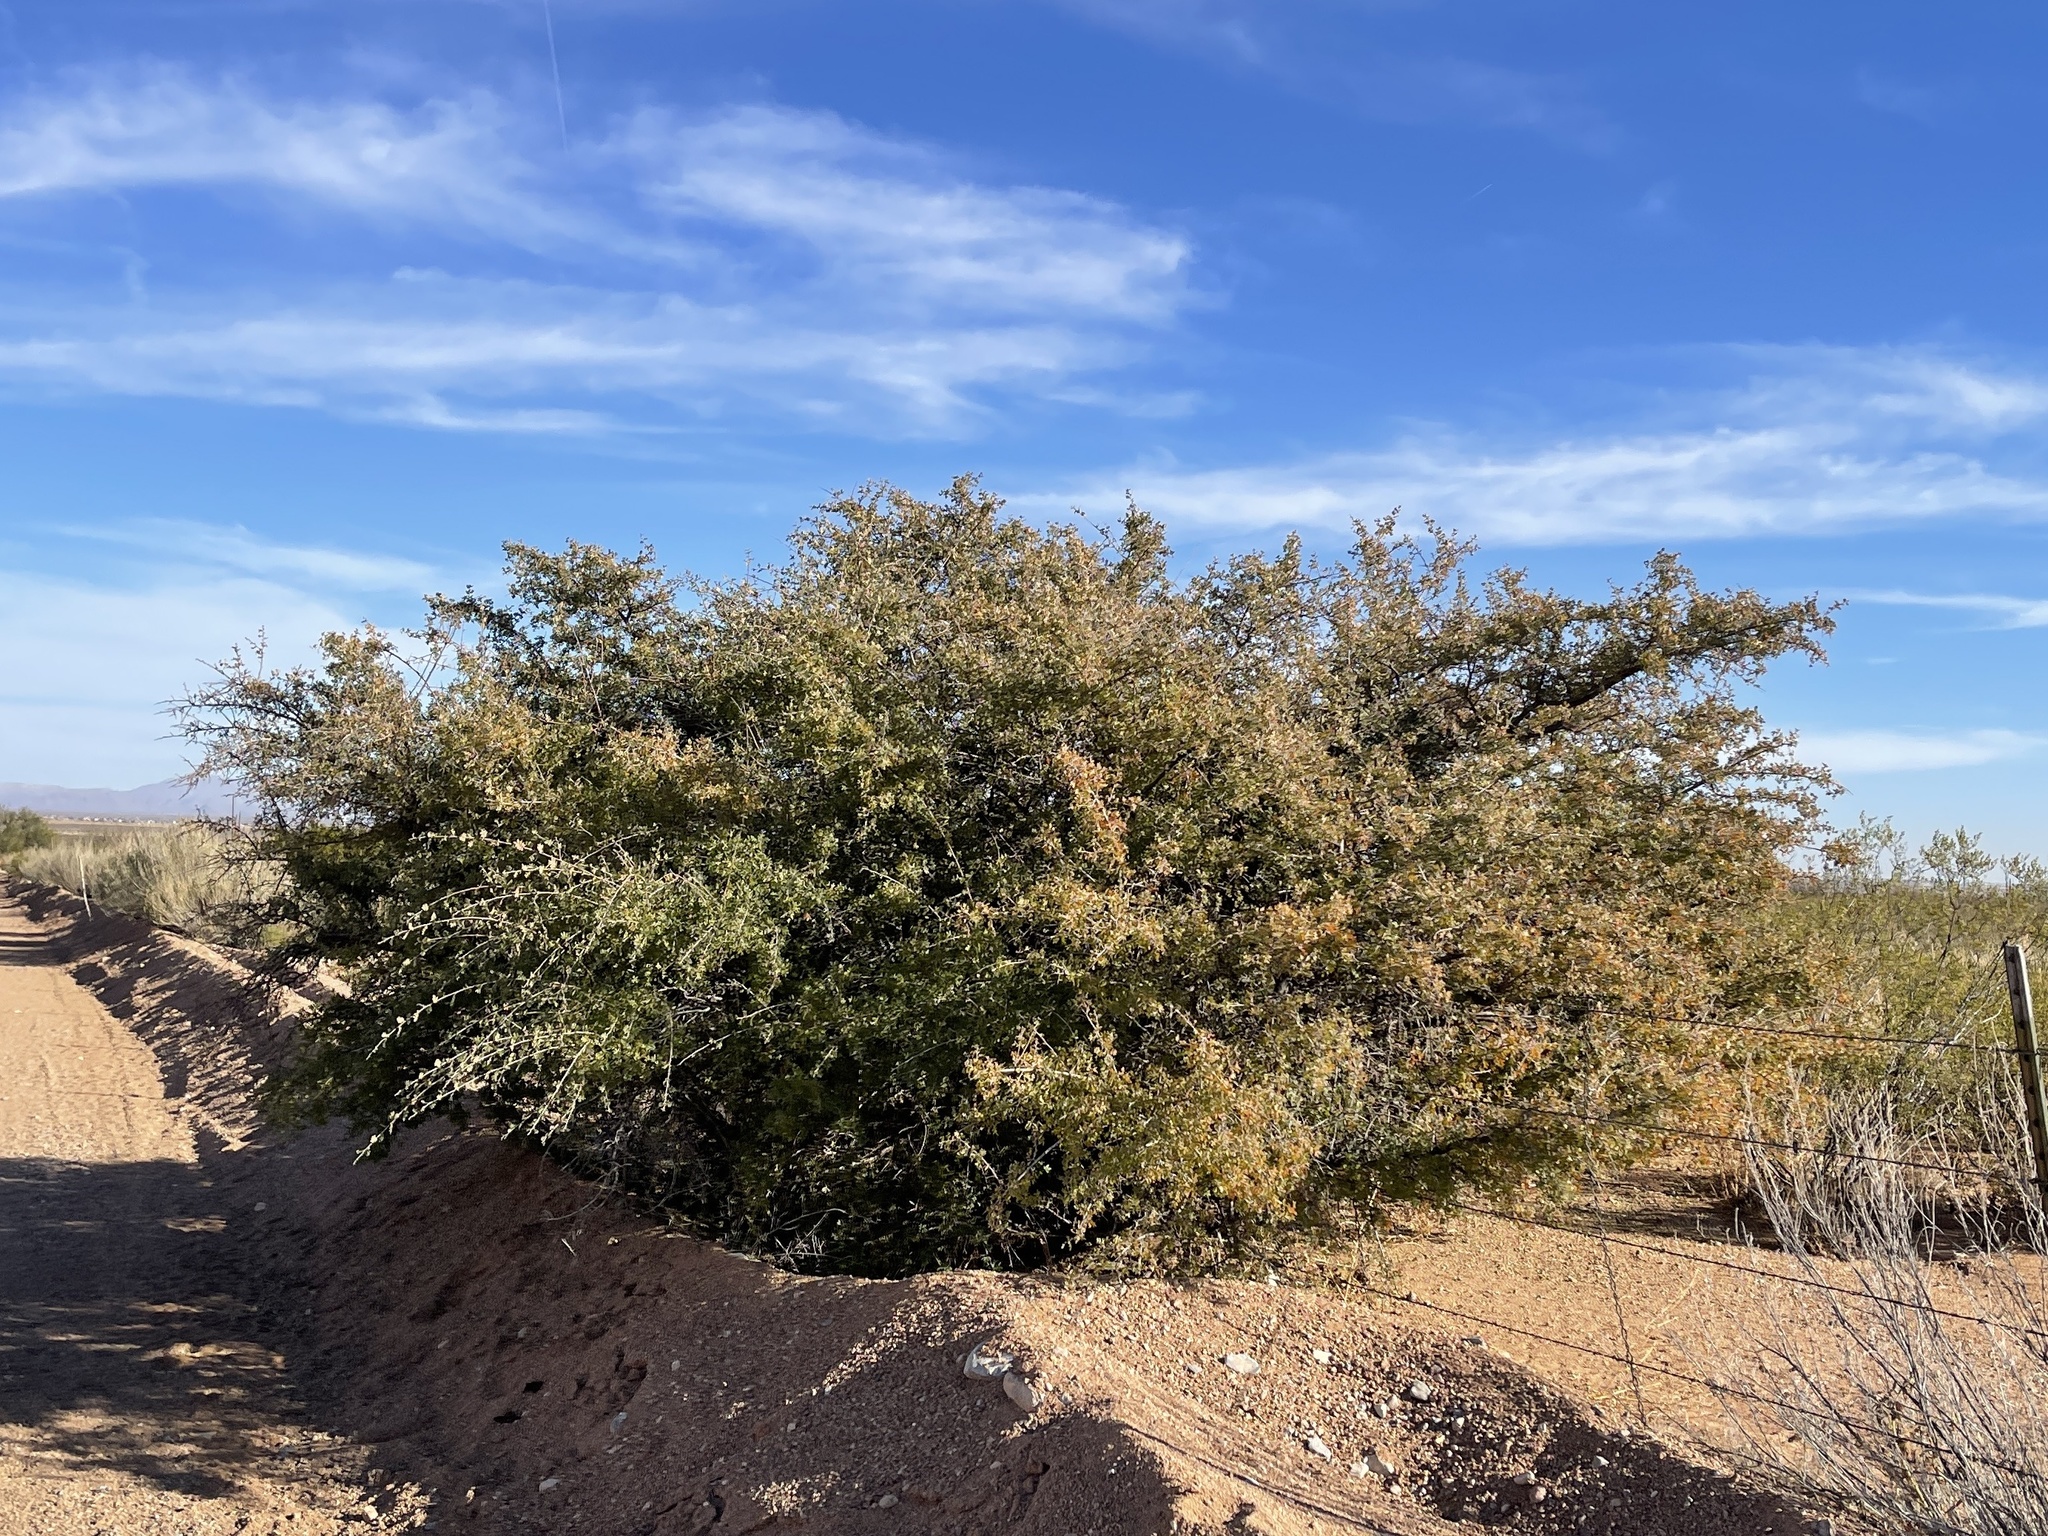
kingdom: Plantae
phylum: Tracheophyta
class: Magnoliopsida
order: Sapindales
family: Anacardiaceae
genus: Rhus
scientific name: Rhus microphylla
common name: Desert sumac
